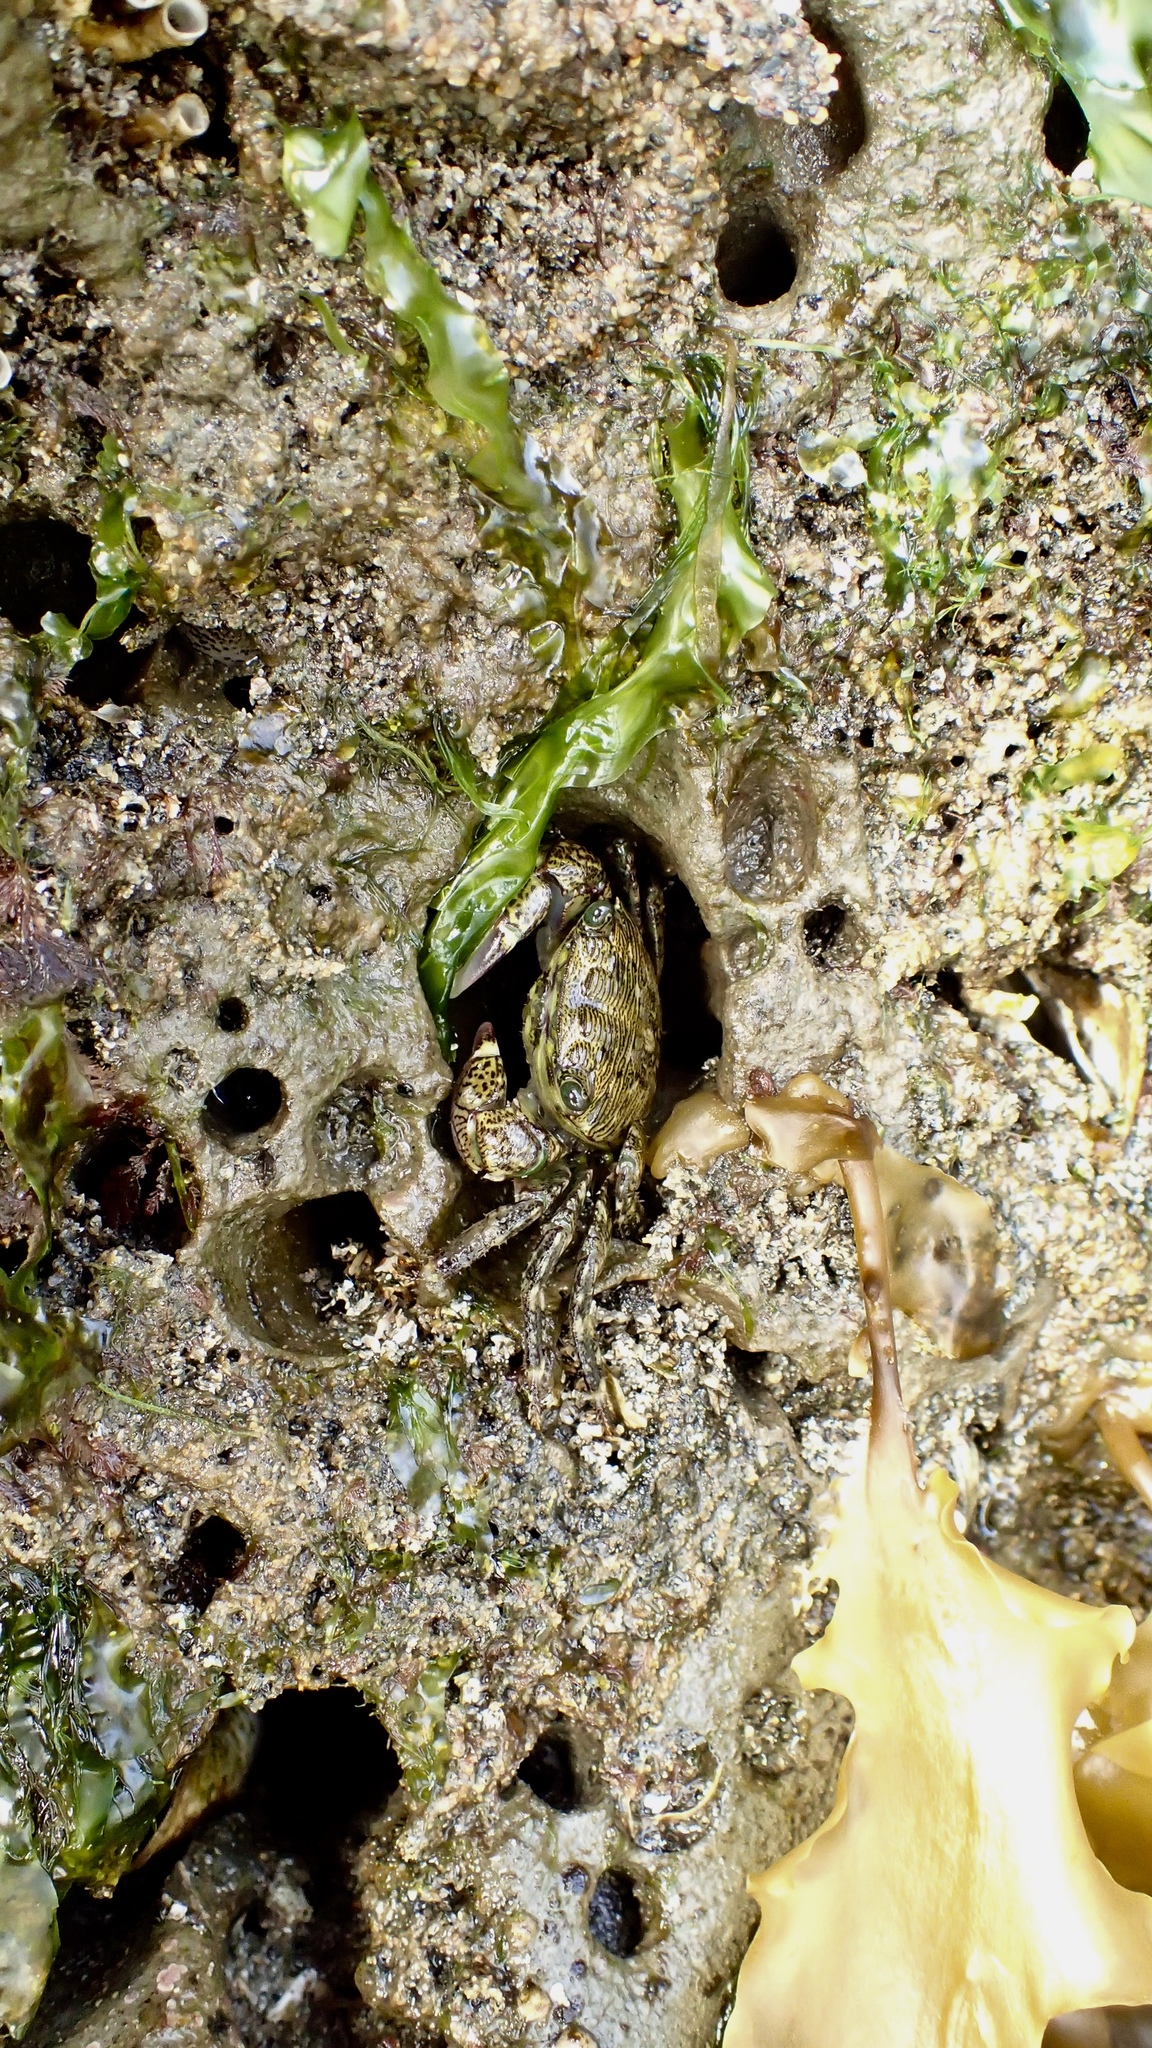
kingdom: Animalia
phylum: Arthropoda
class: Malacostraca
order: Decapoda
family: Grapsidae
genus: Pachygrapsus
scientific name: Pachygrapsus crassipes
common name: Striped shore crab
